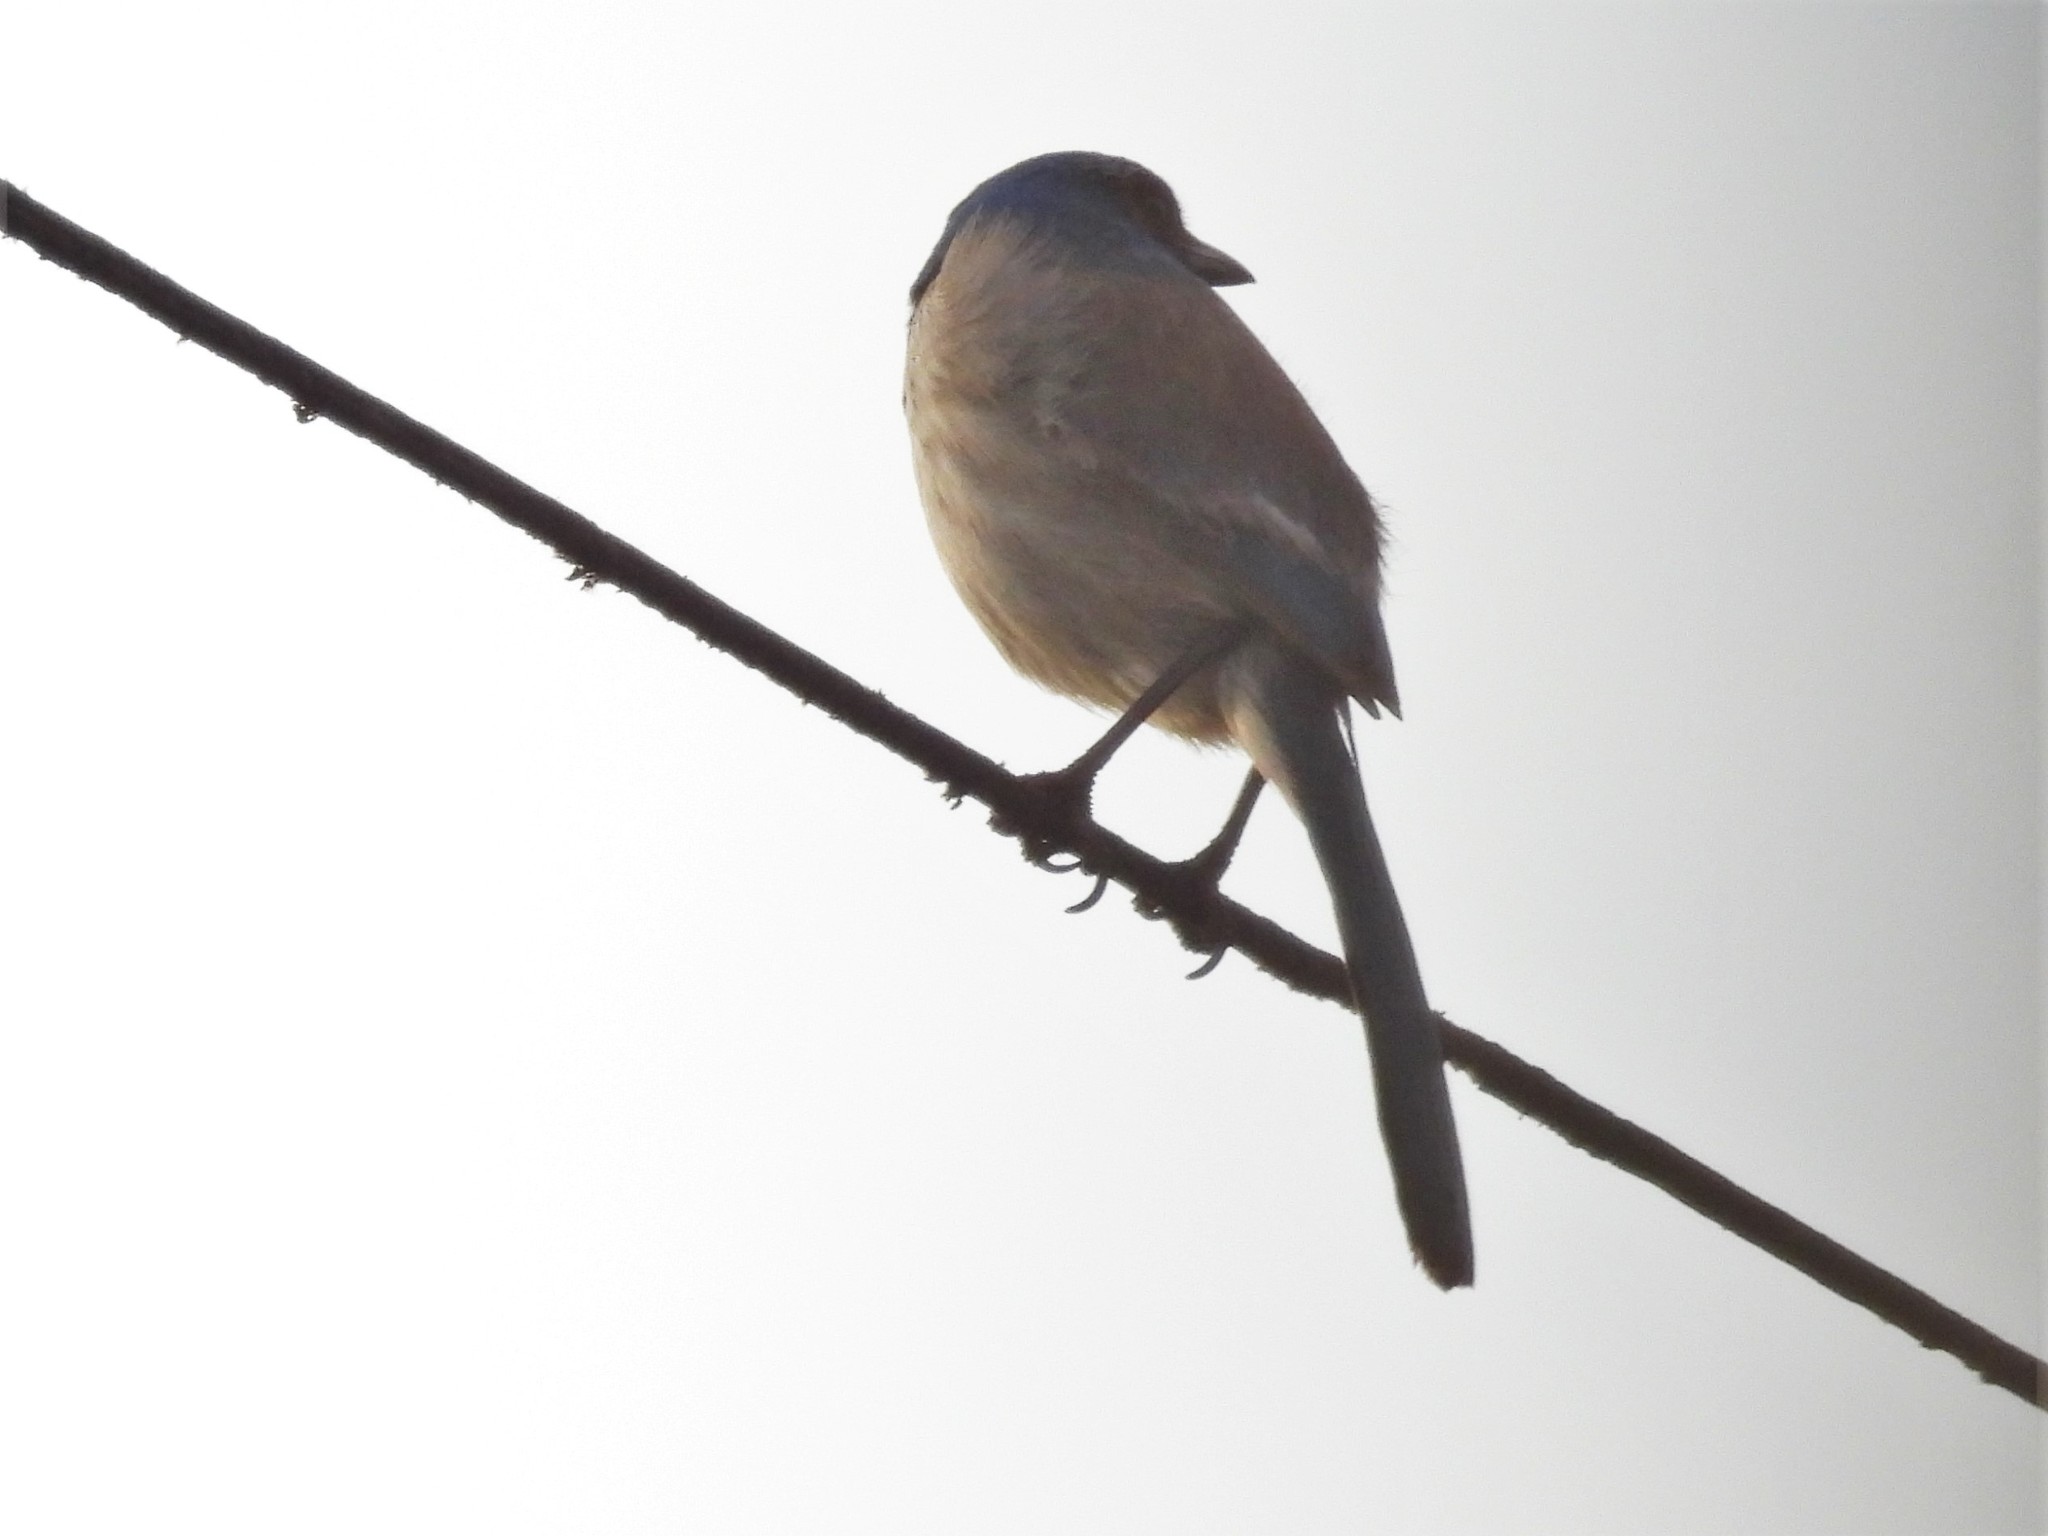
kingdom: Animalia
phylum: Chordata
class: Aves
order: Passeriformes
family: Corvidae
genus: Aphelocoma
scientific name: Aphelocoma californica
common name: California scrub-jay
